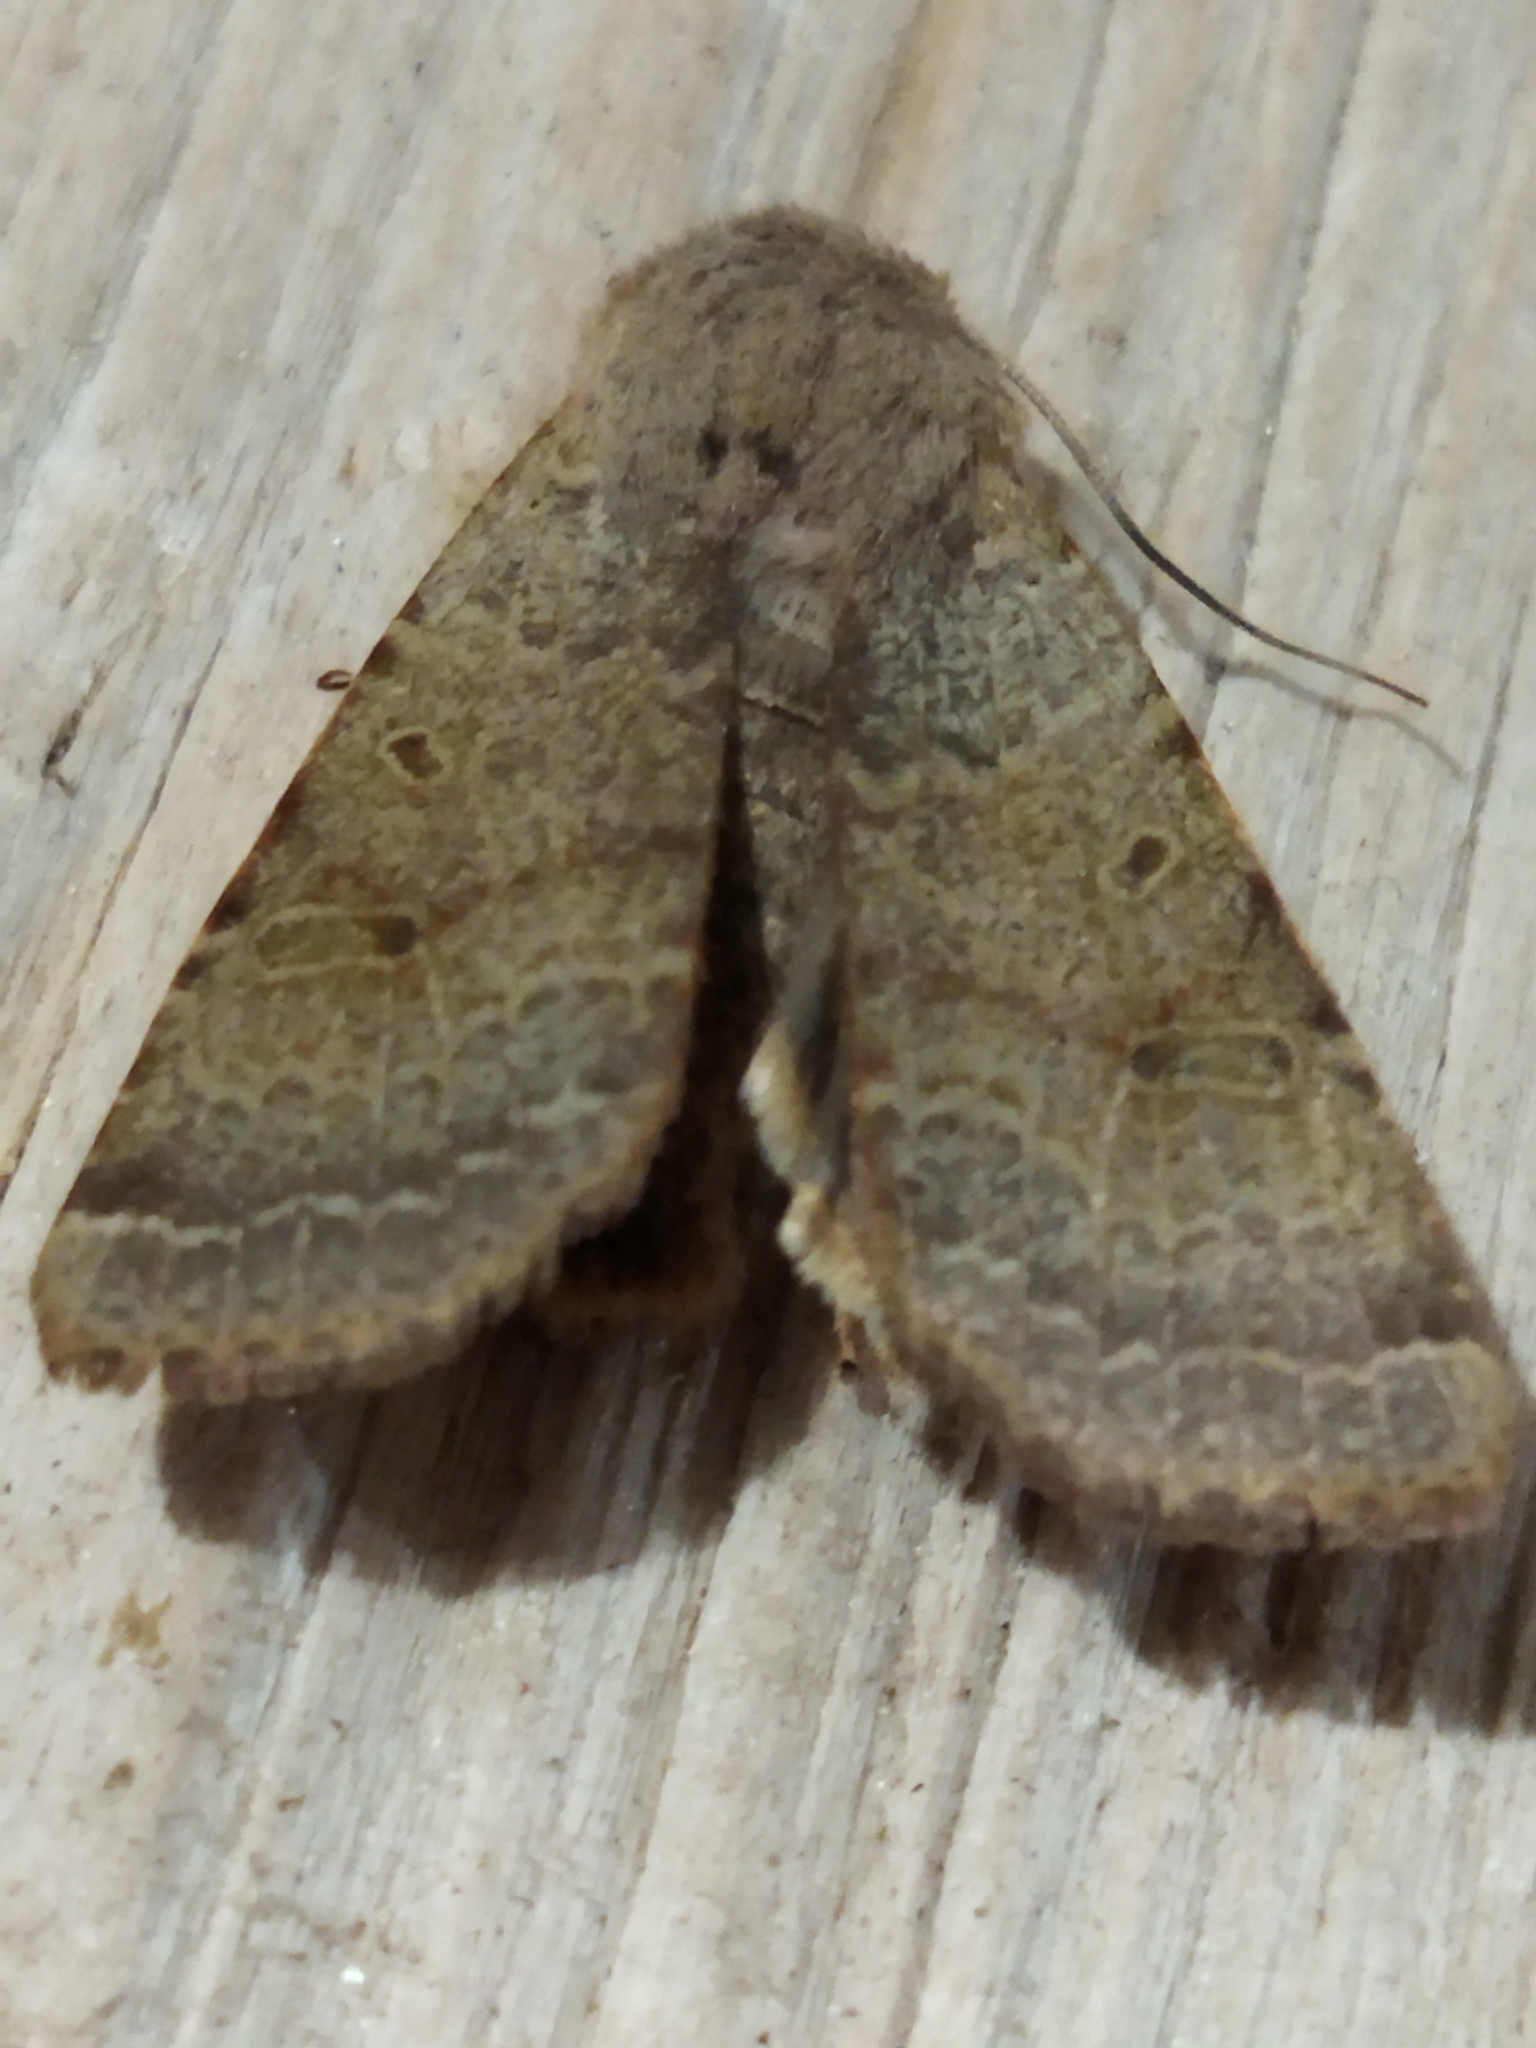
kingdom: Animalia
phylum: Arthropoda
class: Insecta
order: Lepidoptera
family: Noctuidae
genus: Agrochola
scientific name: Agrochola lychnidis
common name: Beaded chestnut
